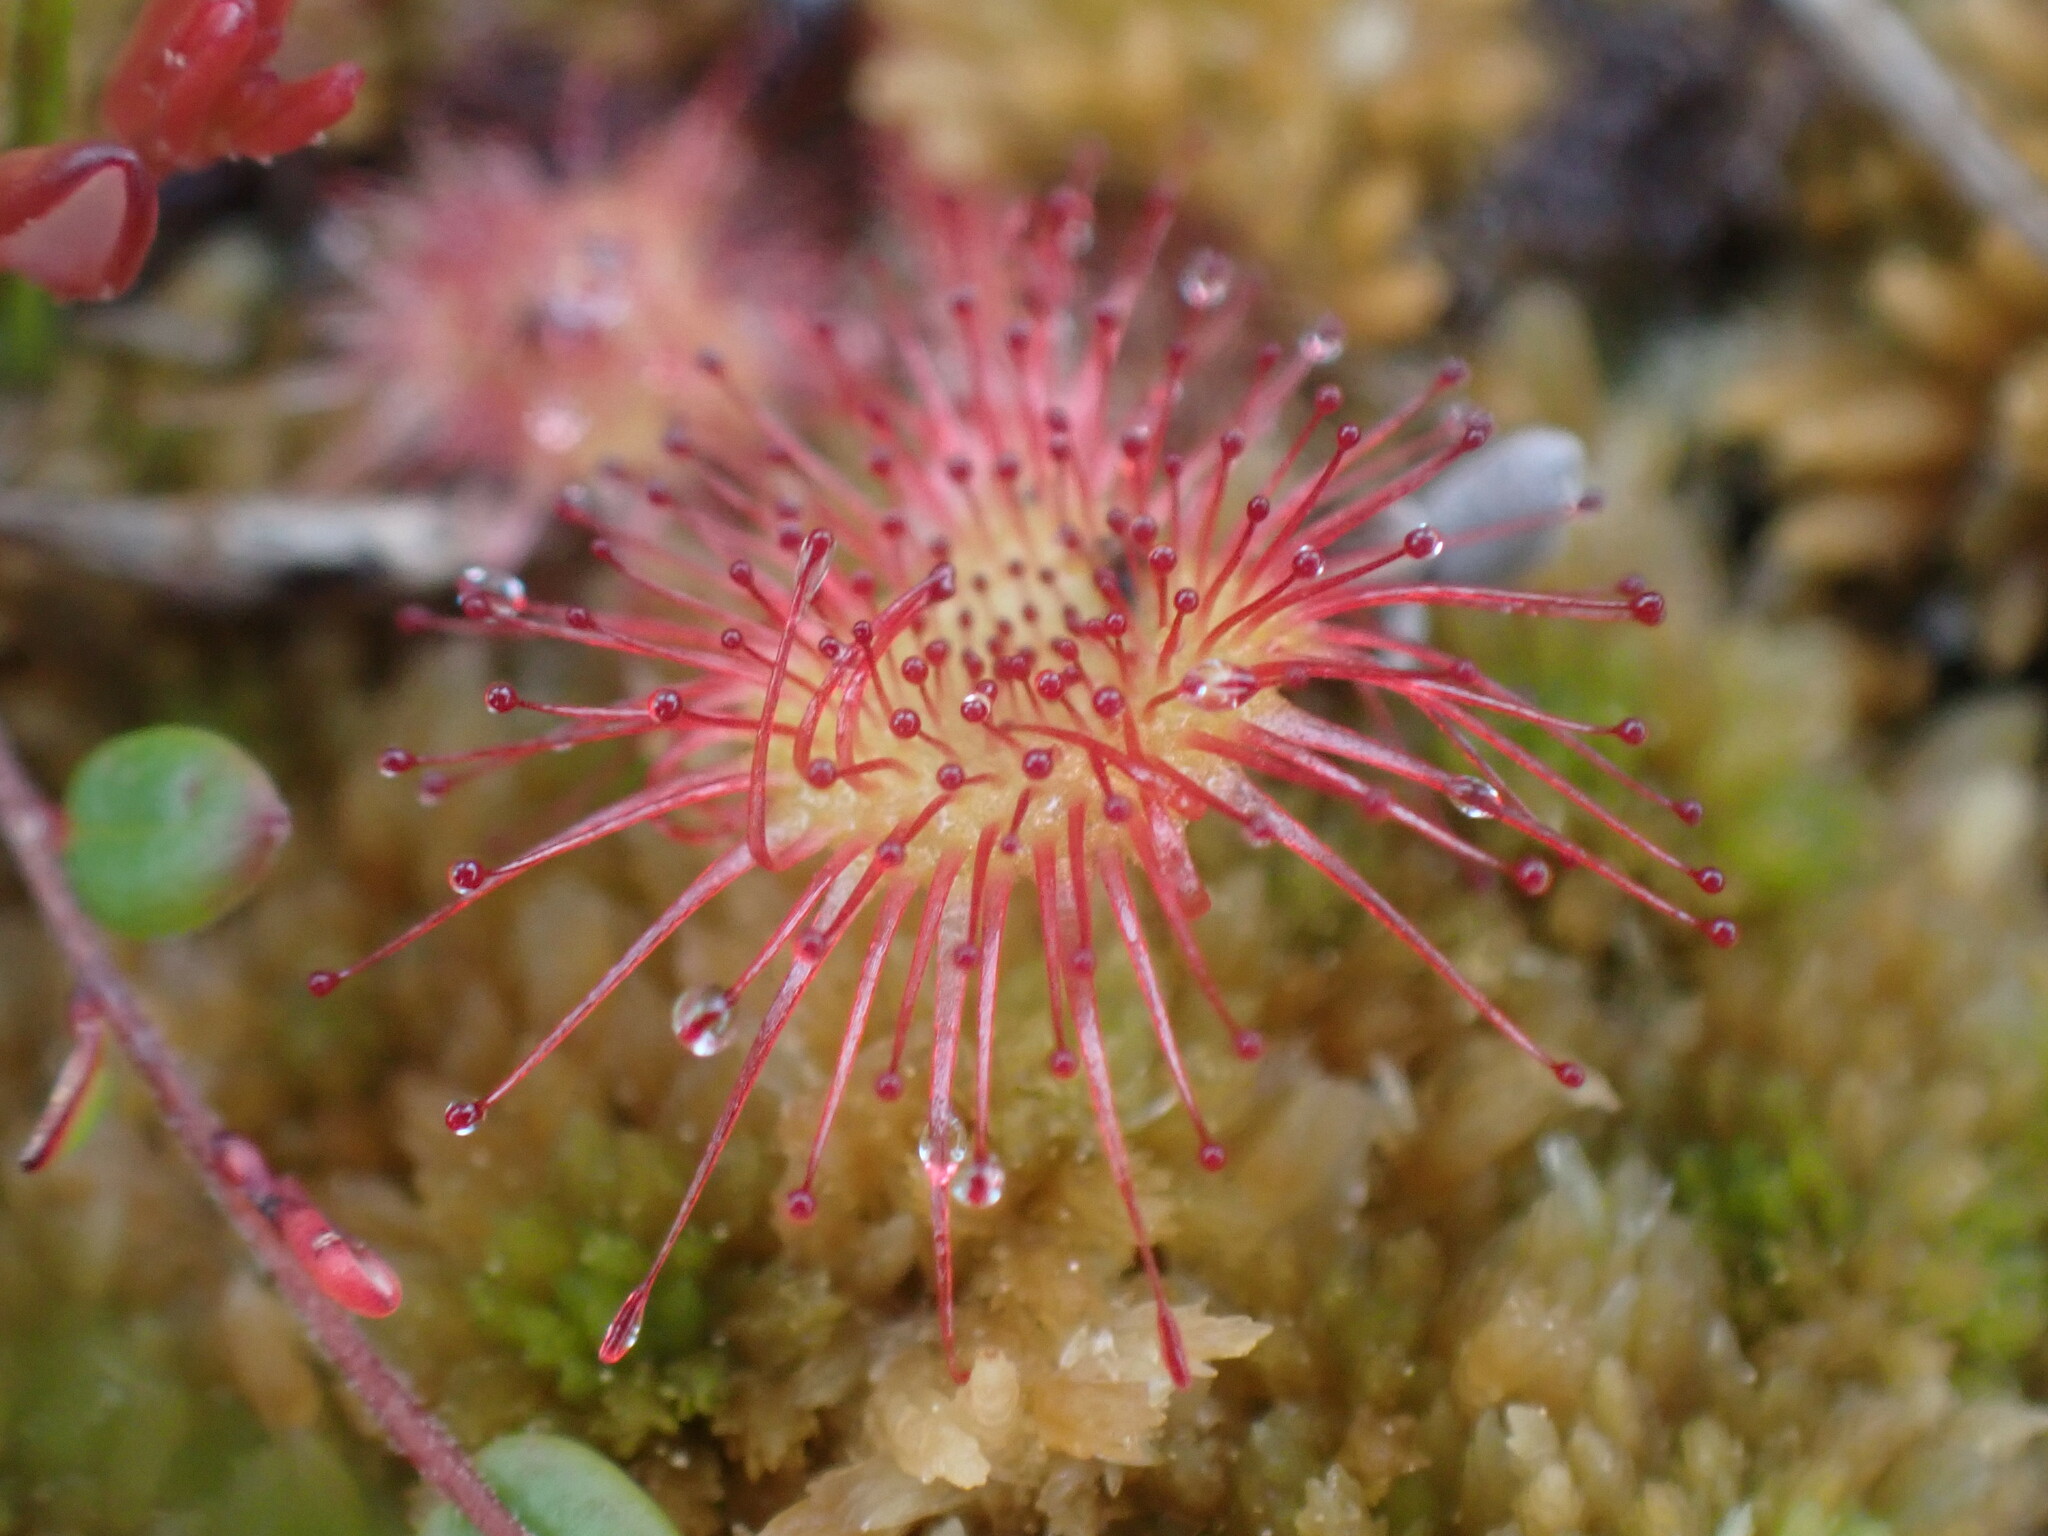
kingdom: Plantae
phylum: Tracheophyta
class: Magnoliopsida
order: Caryophyllales
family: Droseraceae
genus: Drosera
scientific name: Drosera rotundifolia
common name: Round-leaved sundew
